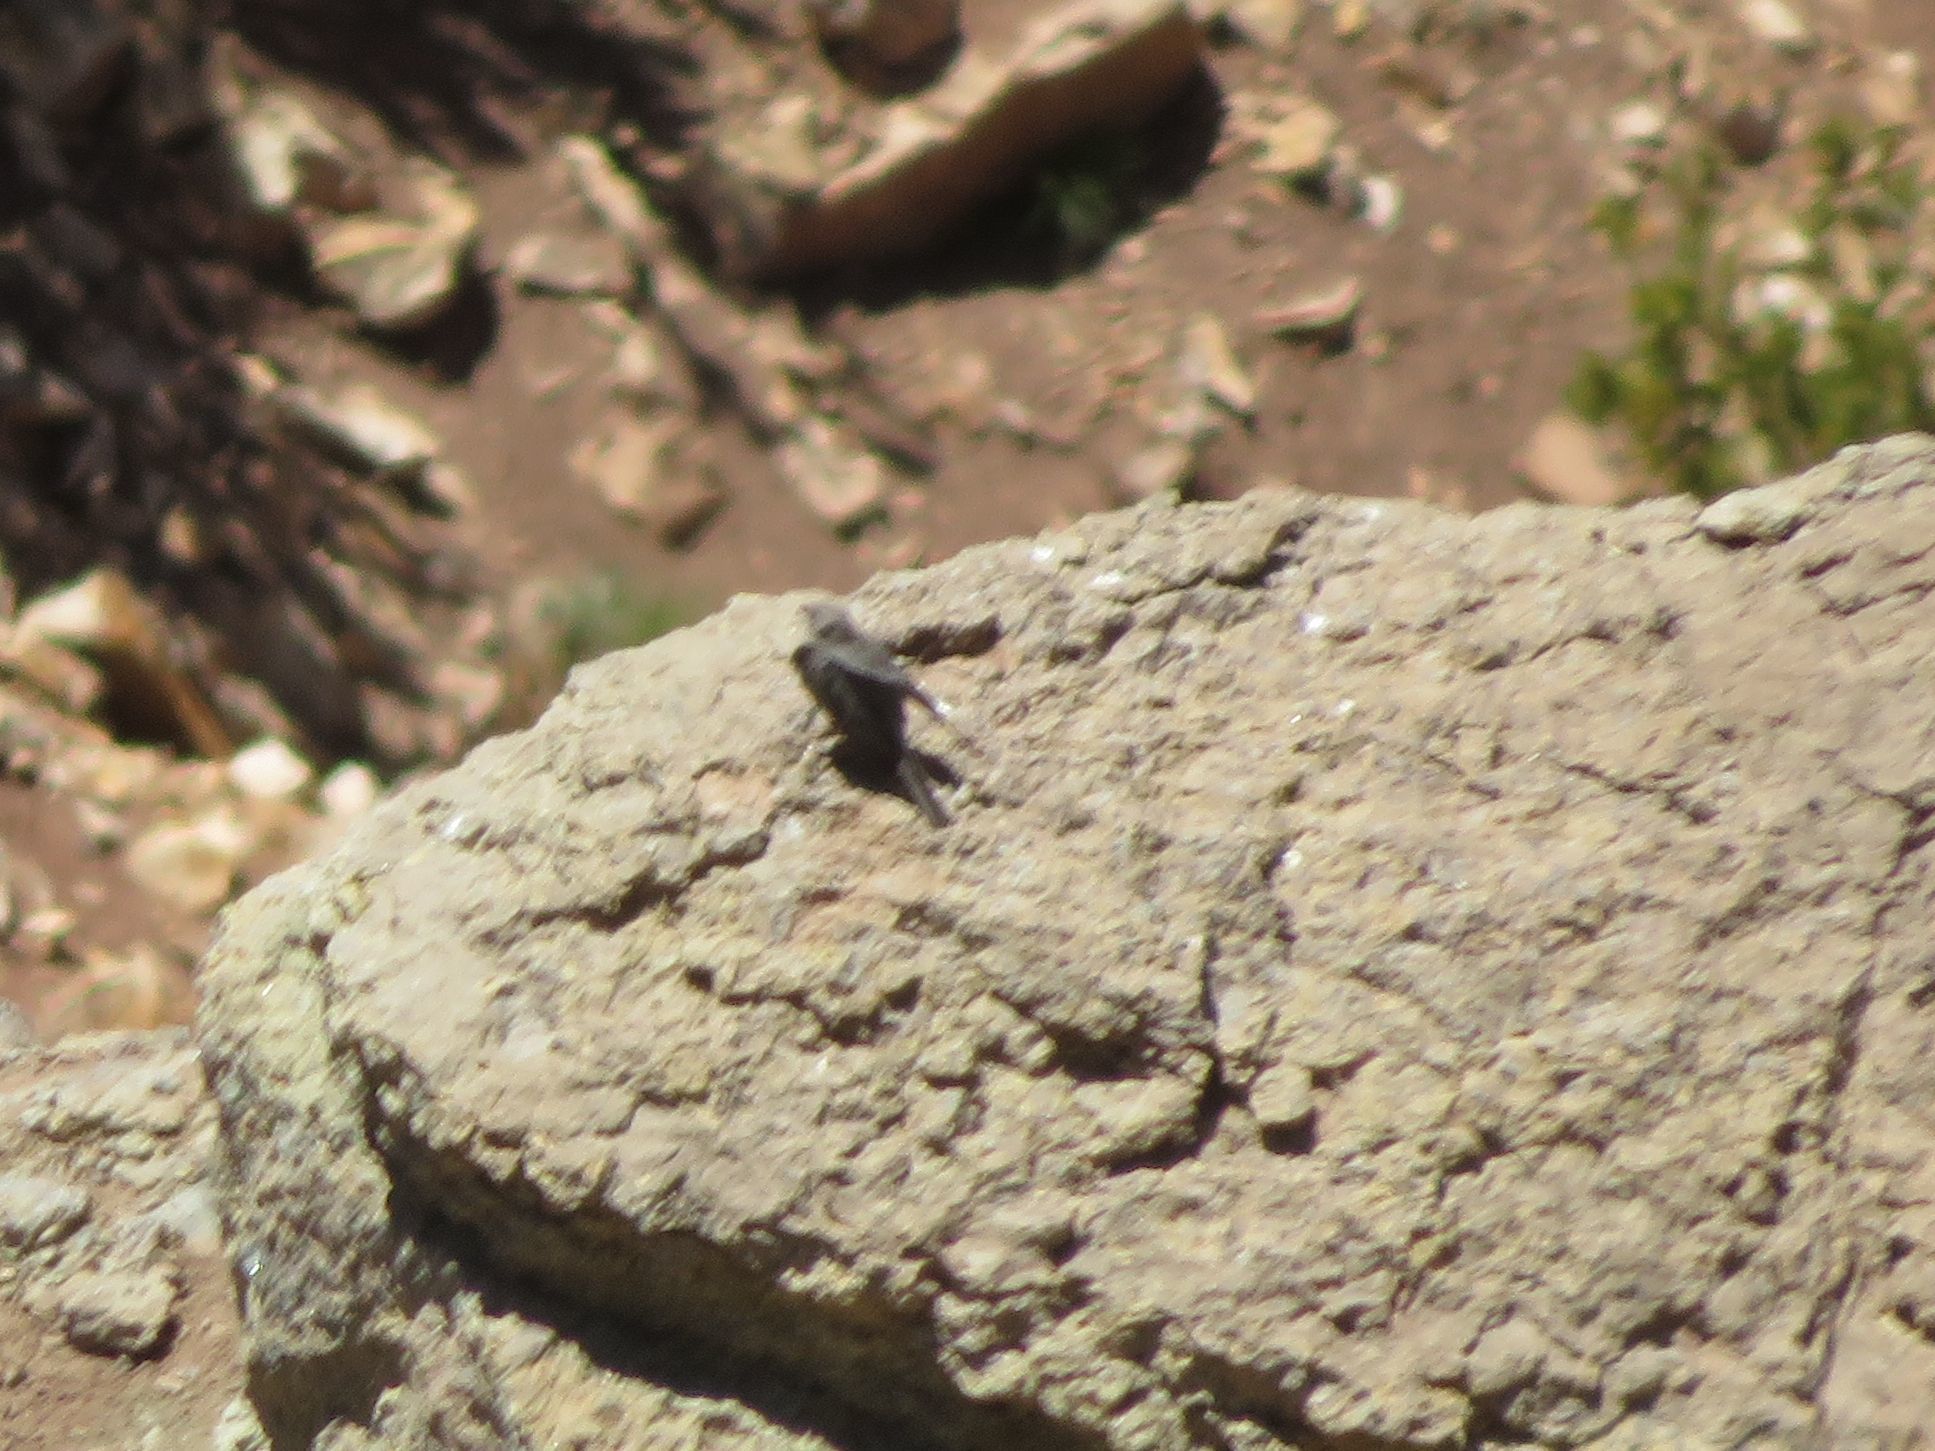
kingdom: Animalia
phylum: Chordata
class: Aves
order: Passeriformes
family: Thraupidae
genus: Geospizopsis
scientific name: Geospizopsis unicolor
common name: Plumbeous sierra-finch
